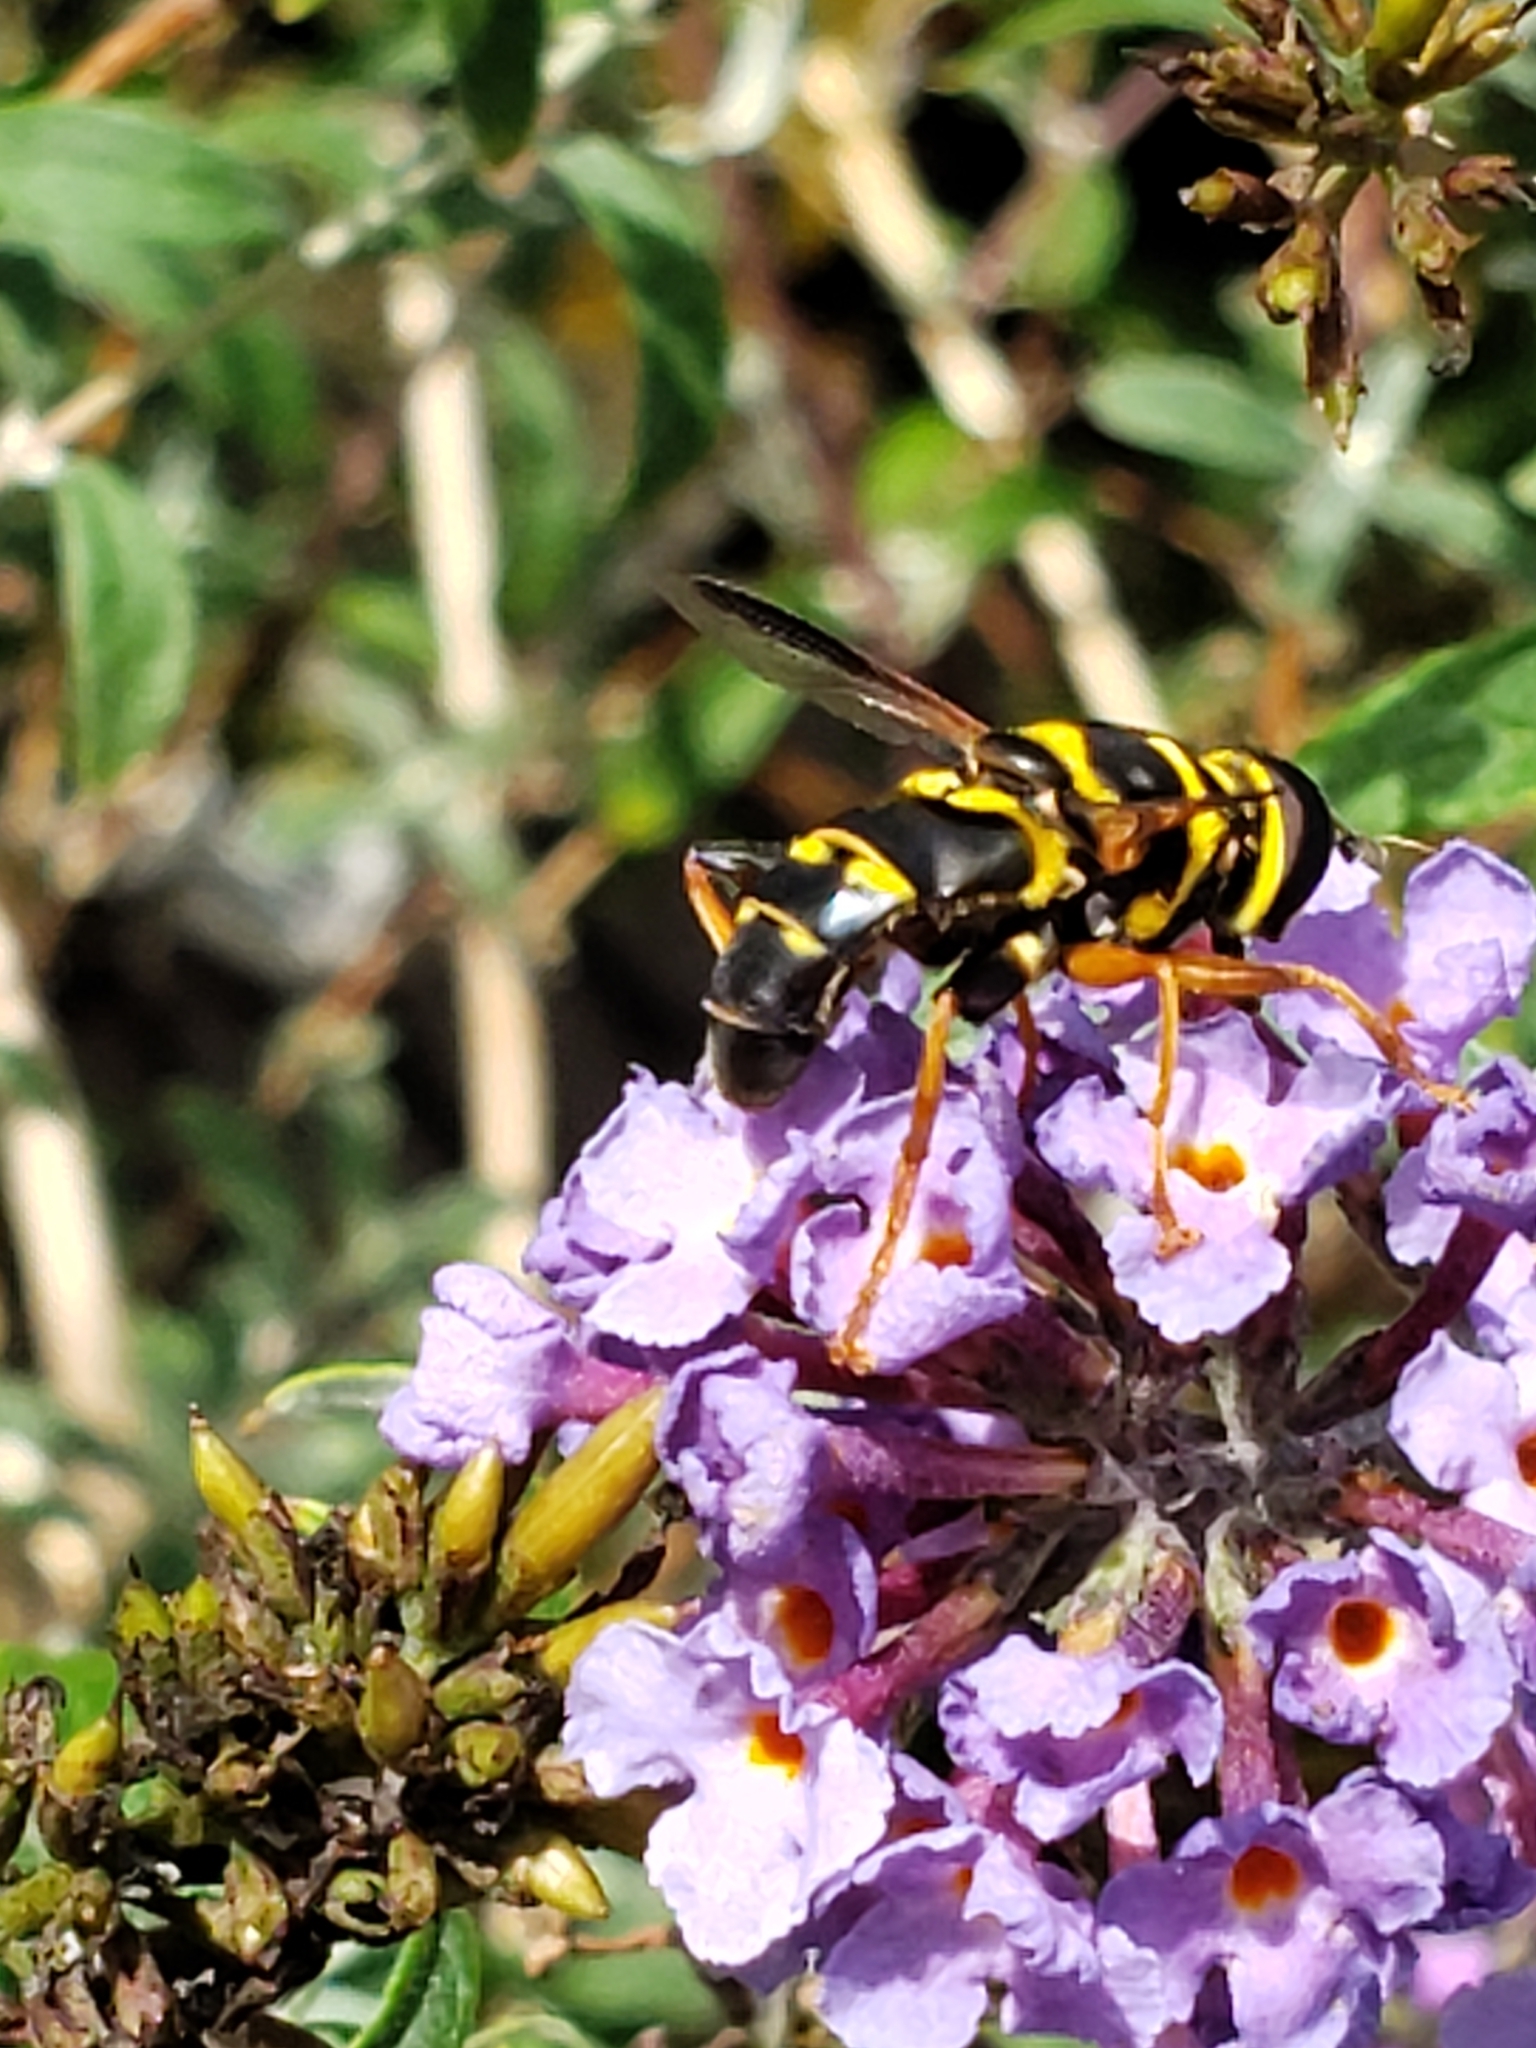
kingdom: Animalia
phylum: Arthropoda
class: Insecta
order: Diptera
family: Syrphidae
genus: Meromacrus
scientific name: Meromacrus acutus
